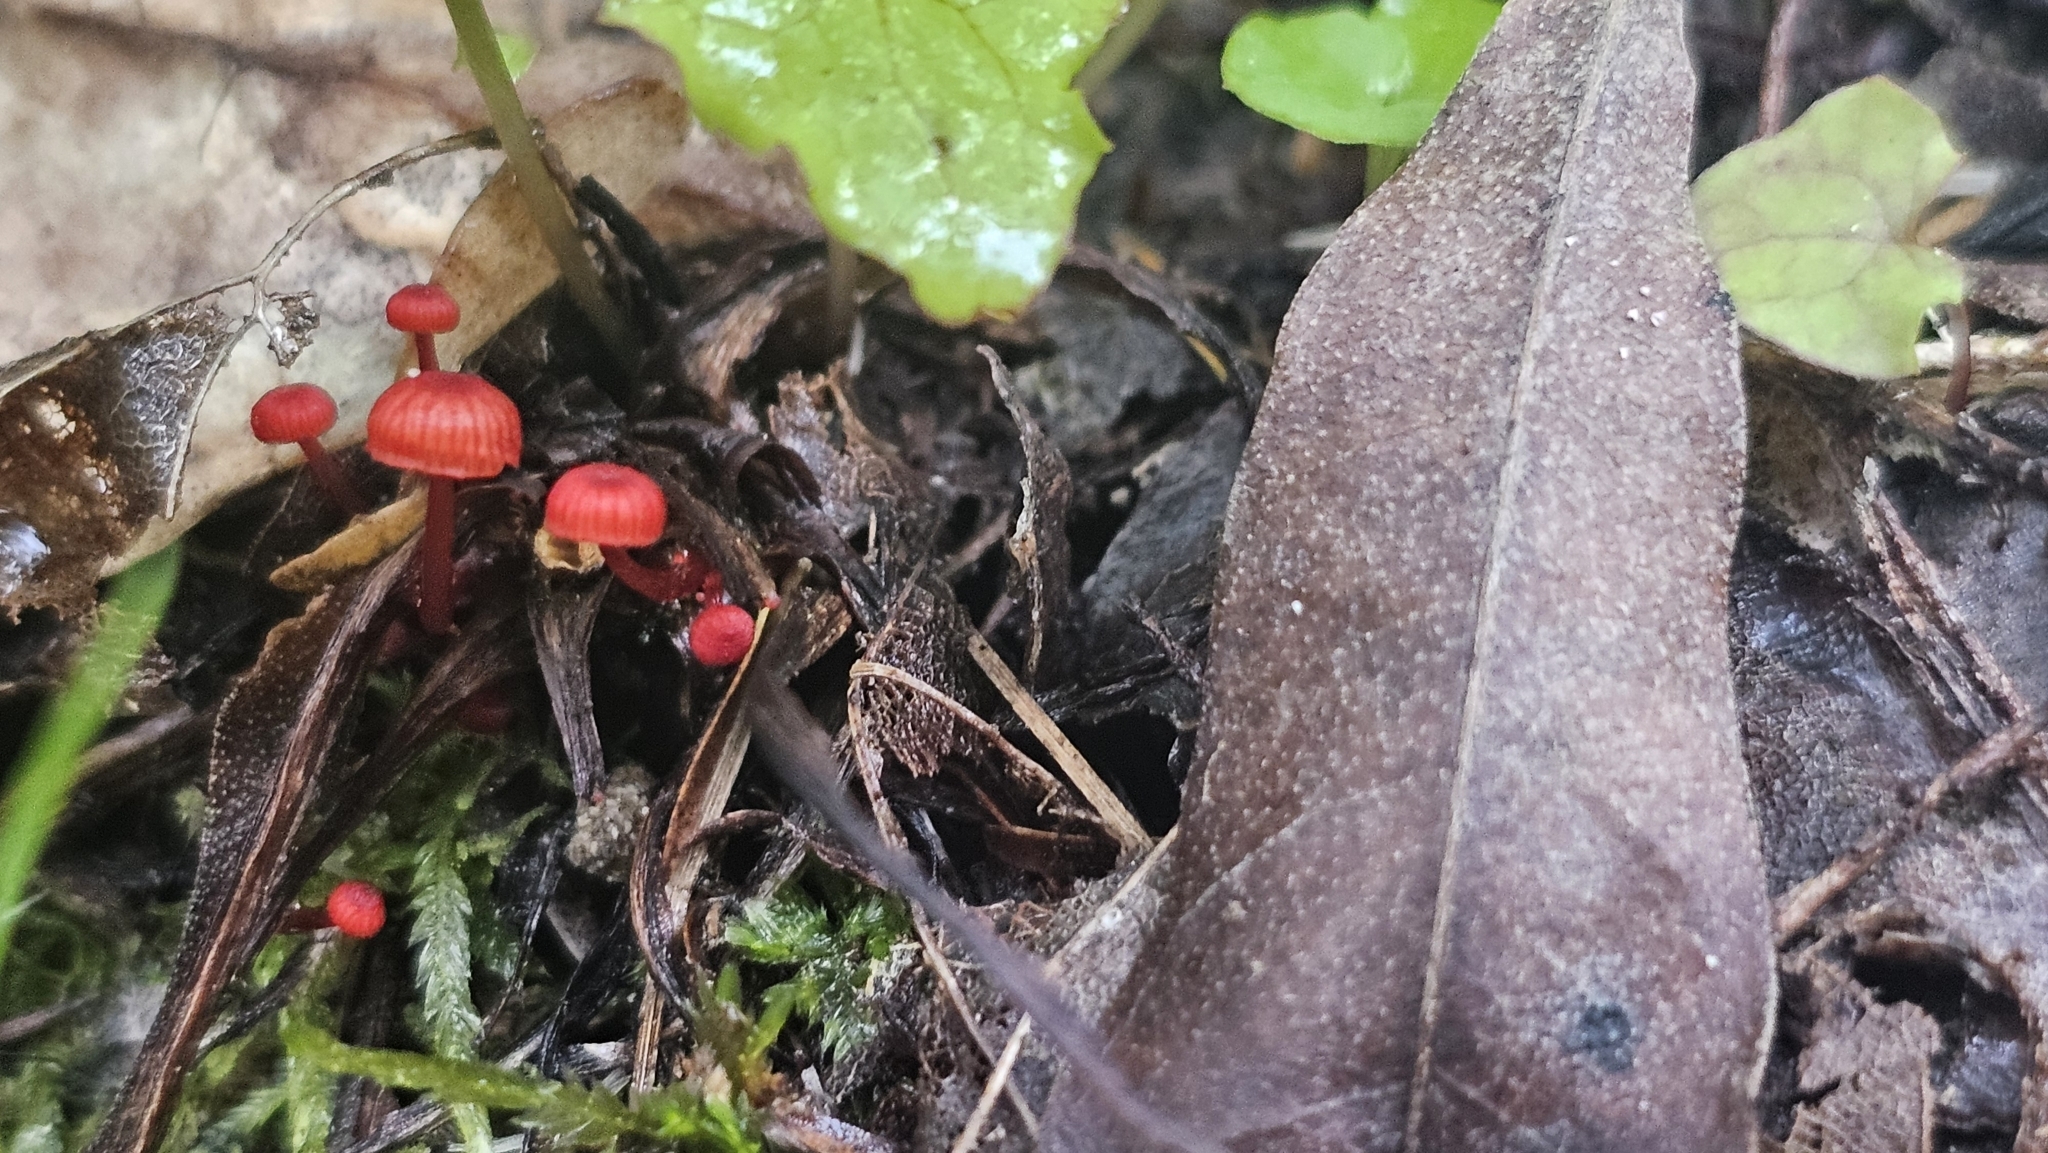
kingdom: Fungi
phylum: Basidiomycota
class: Agaricomycetes
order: Agaricales
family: Mycenaceae
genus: Cruentomycena
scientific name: Cruentomycena viscidocruenta
